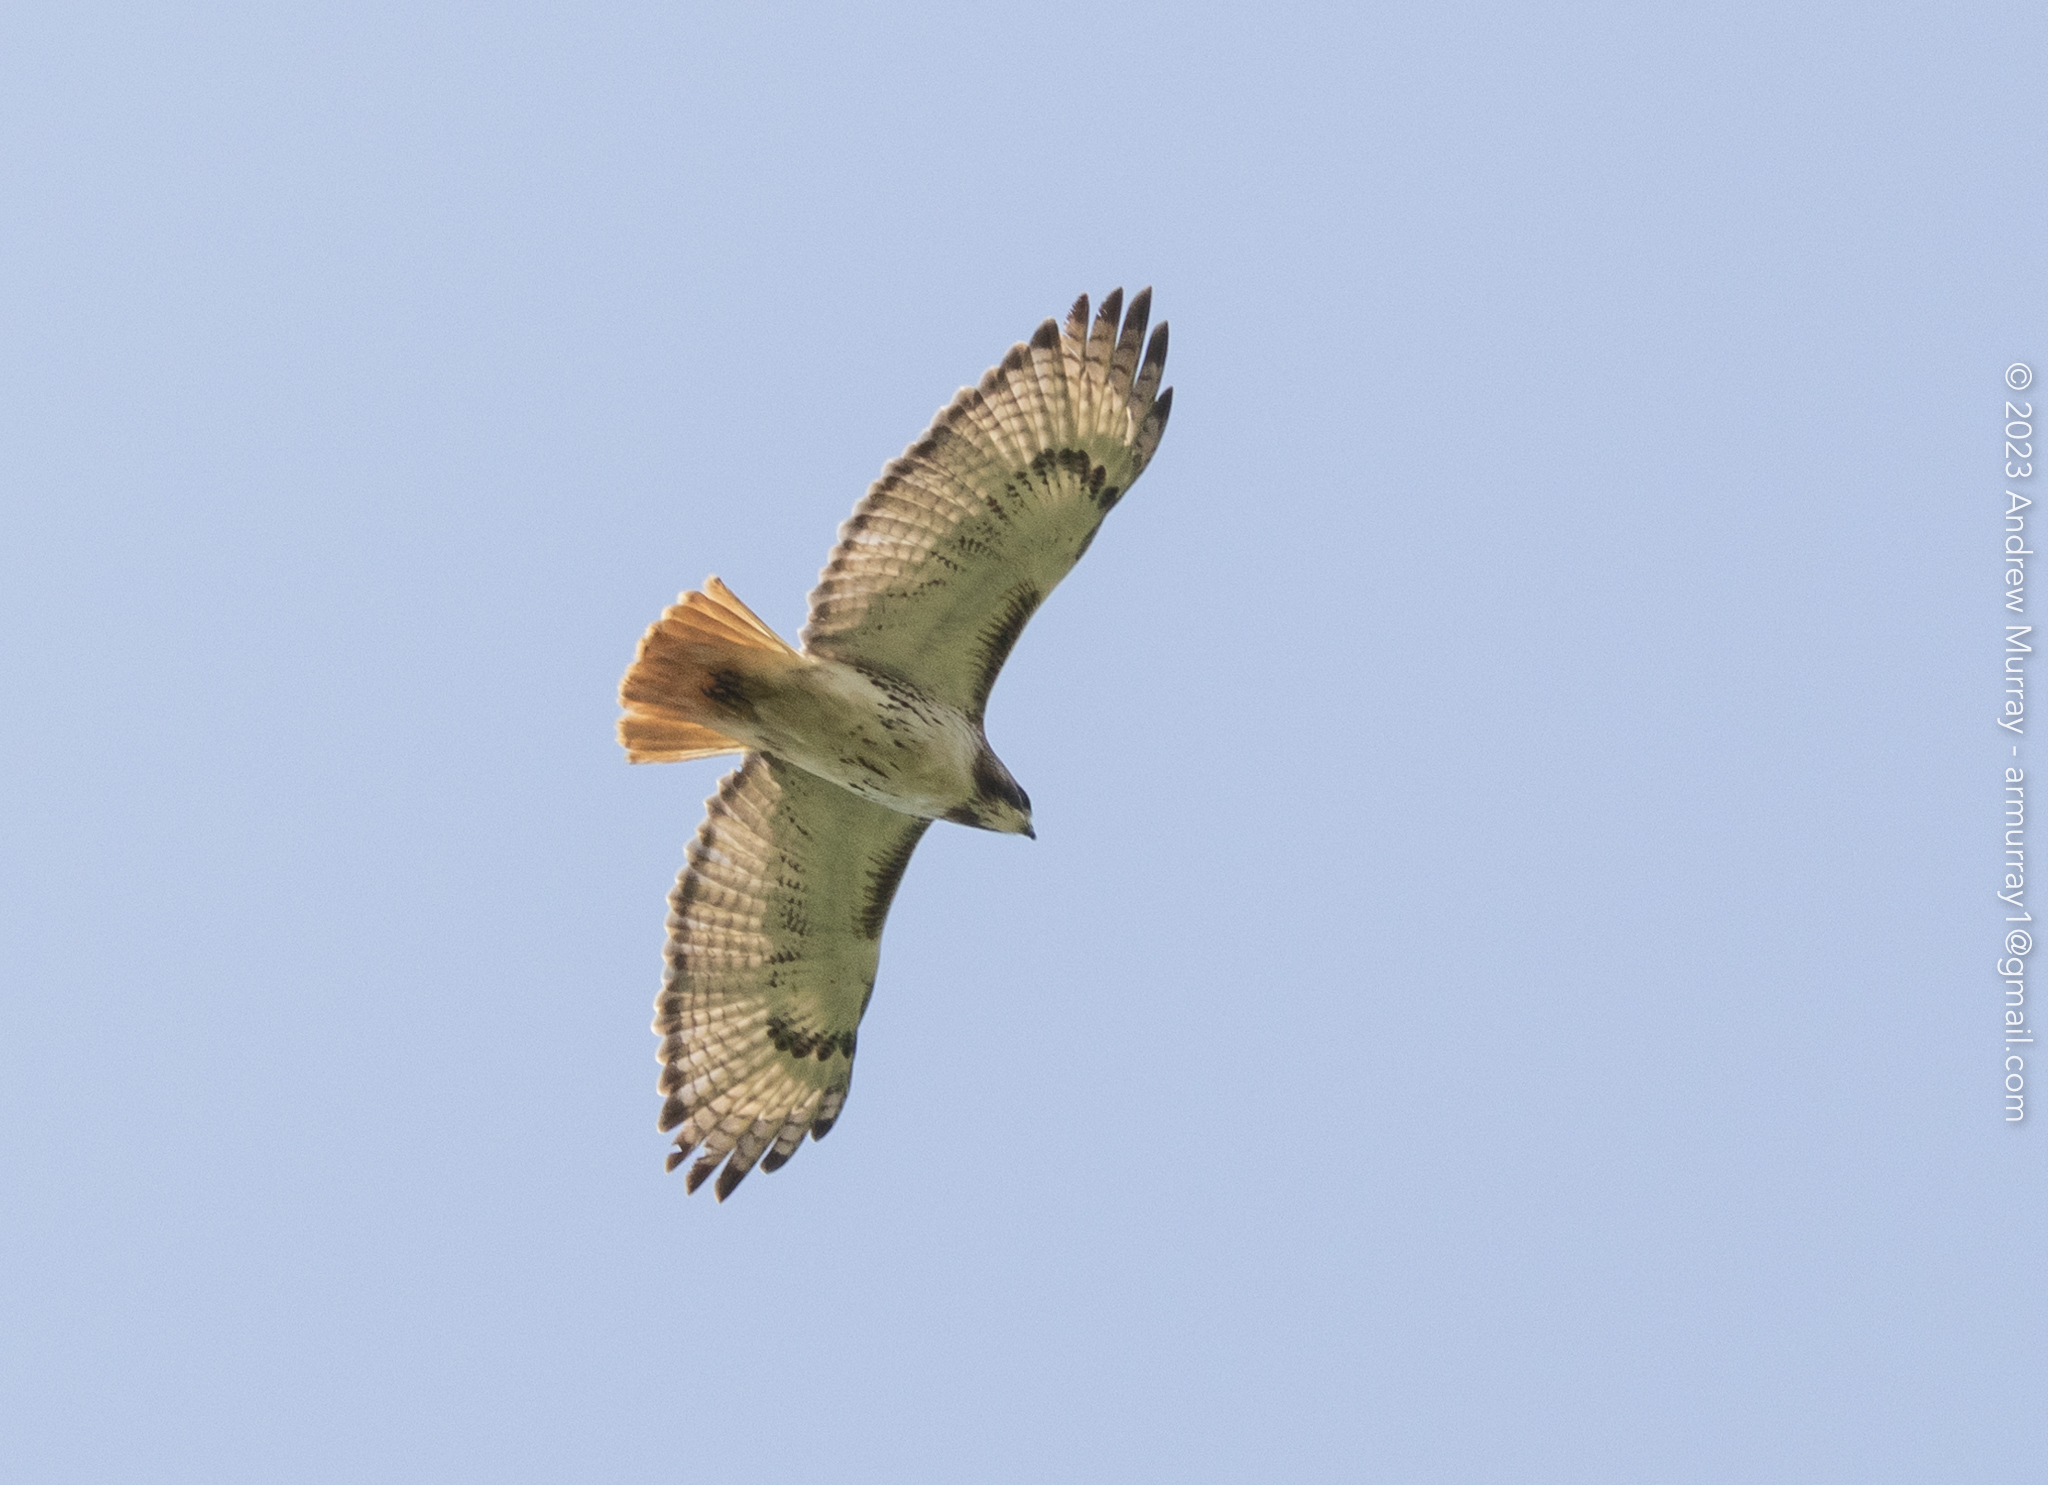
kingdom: Animalia
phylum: Chordata
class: Aves
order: Accipitriformes
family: Accipitridae
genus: Buteo
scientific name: Buteo jamaicensis
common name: Red-tailed hawk
